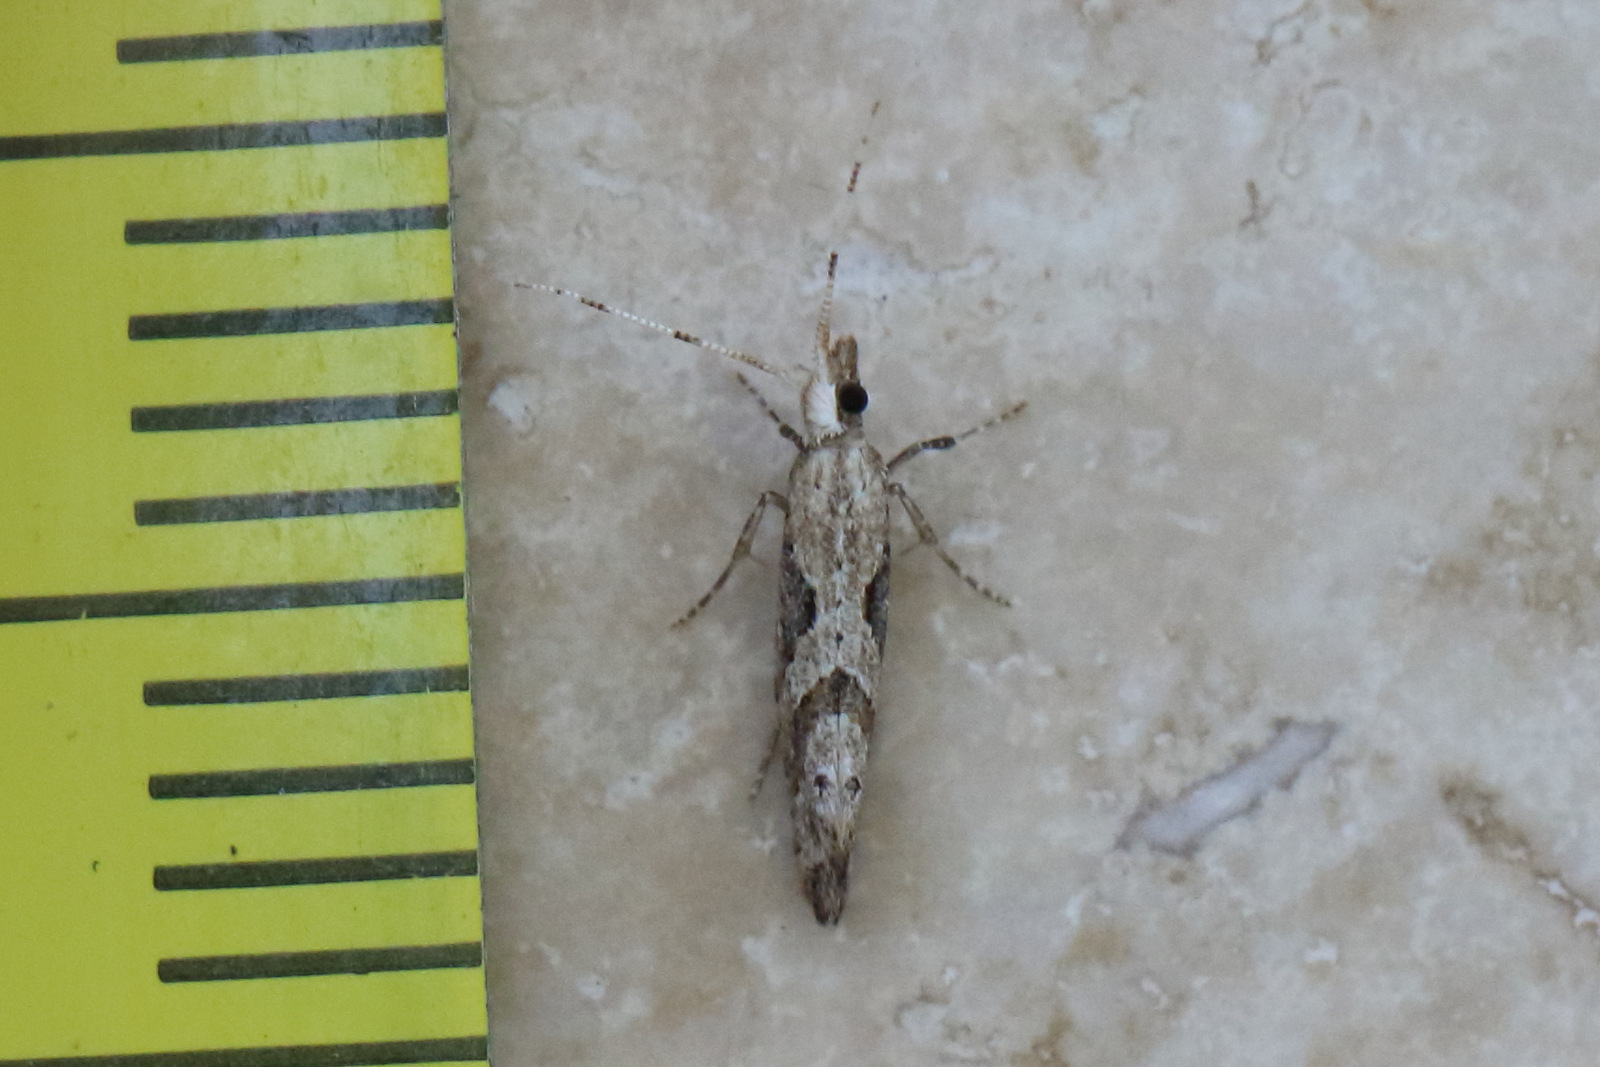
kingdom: Animalia
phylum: Arthropoda
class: Insecta
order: Lepidoptera
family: Plutellidae
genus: Leuroperna
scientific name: Leuroperna sera
